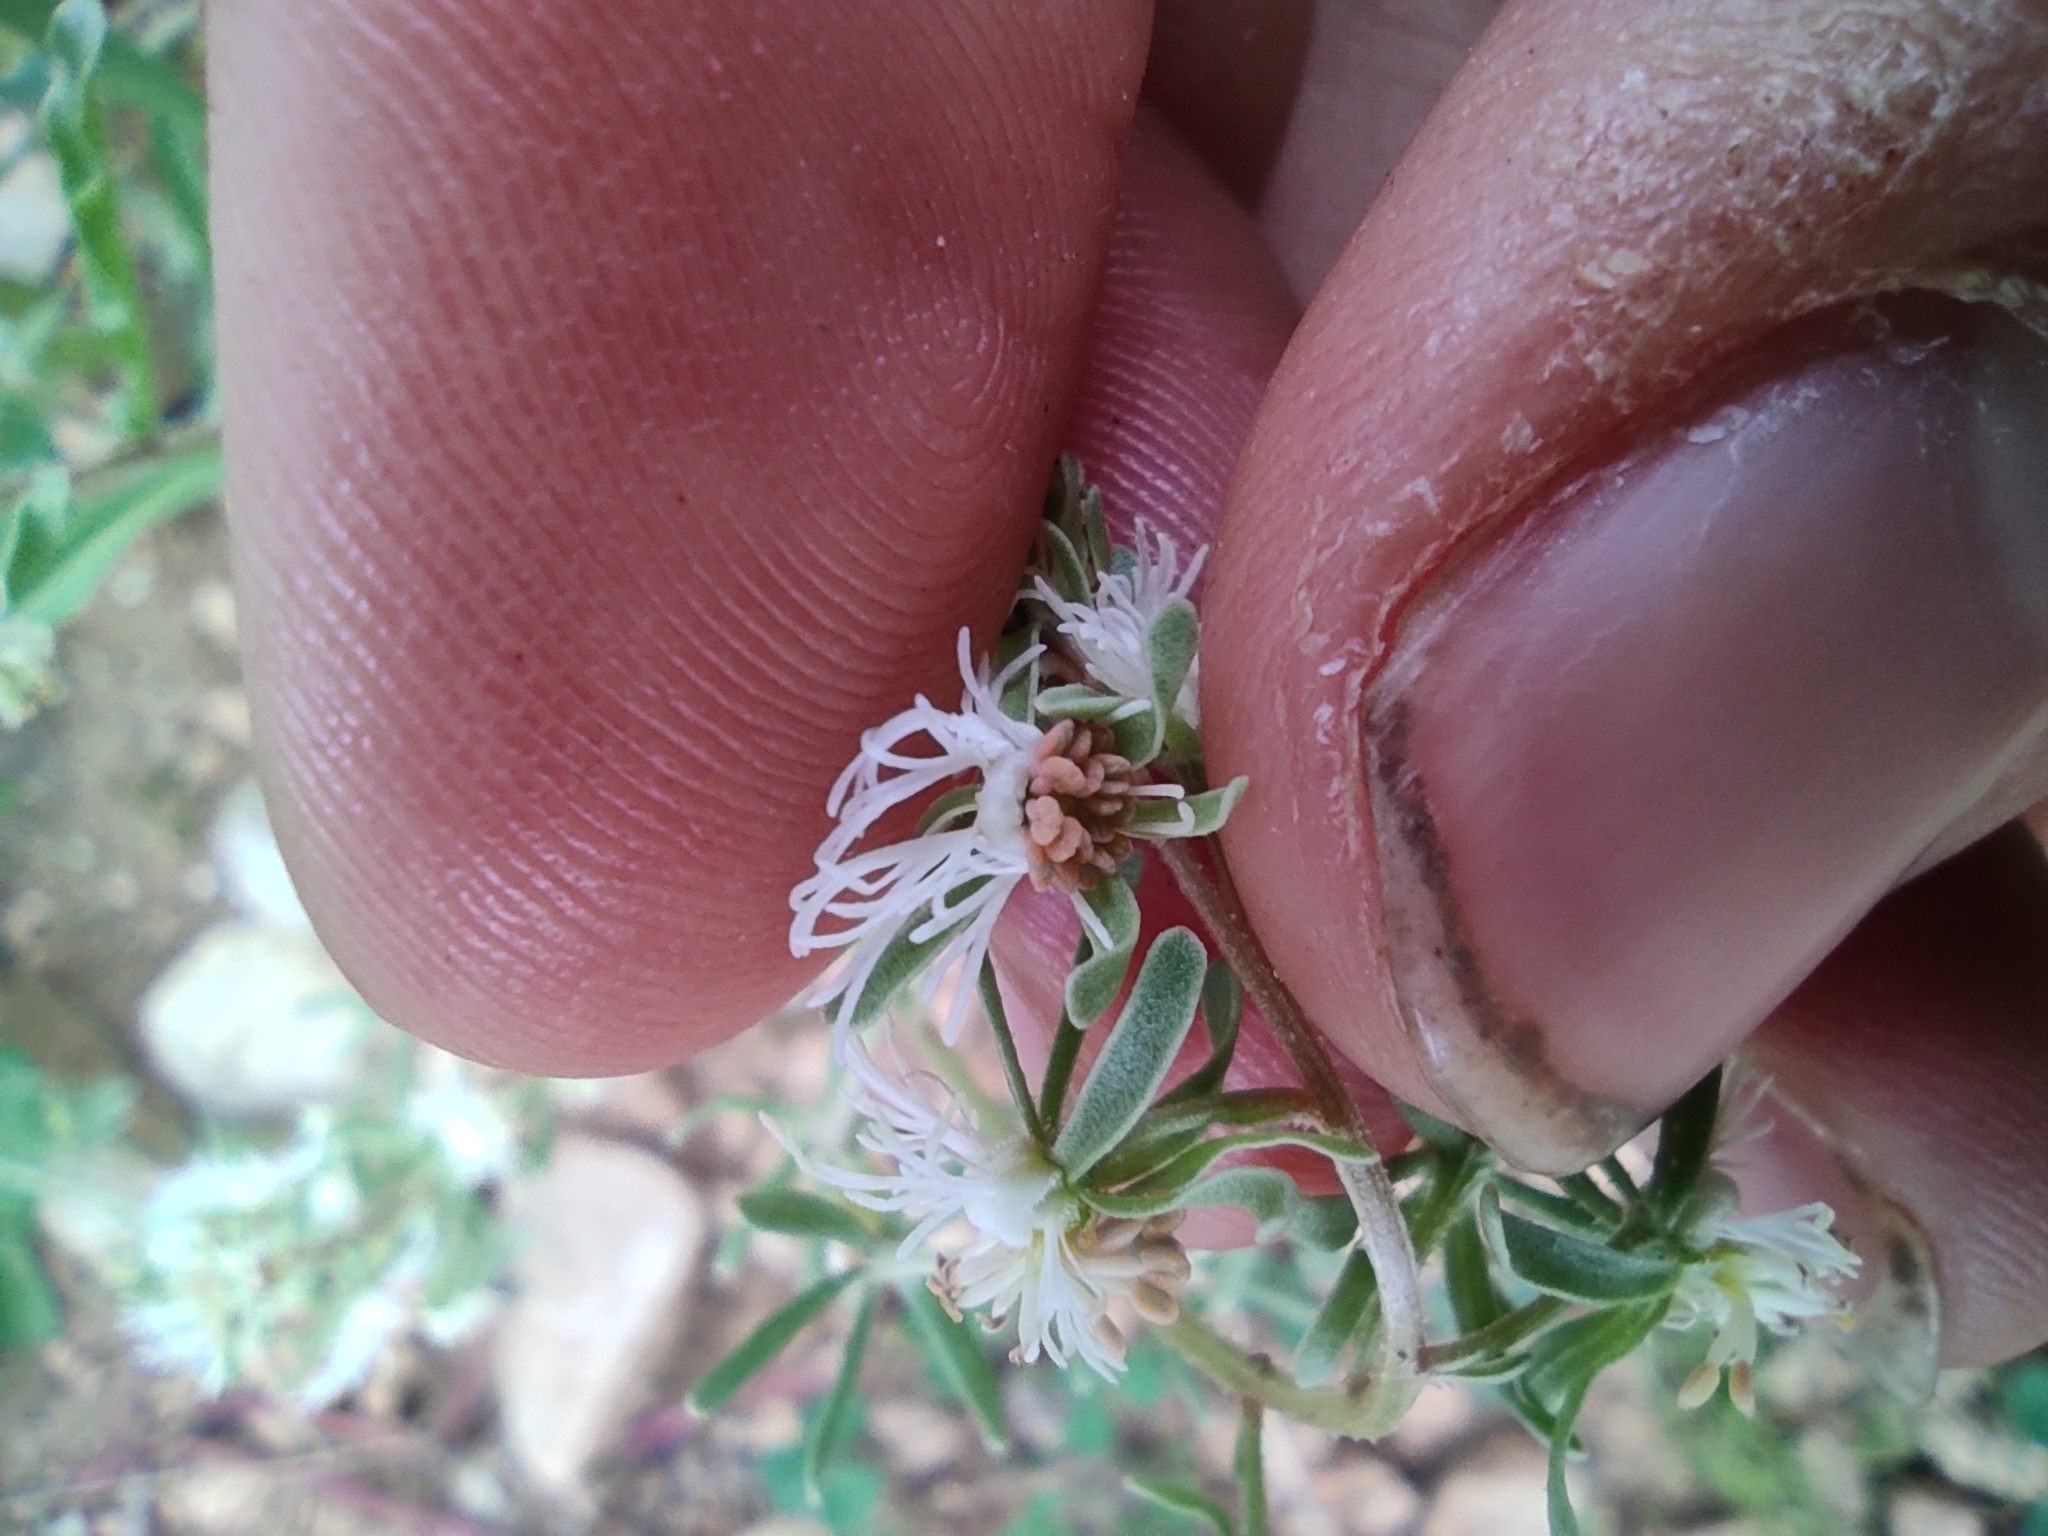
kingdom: Plantae
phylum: Tracheophyta
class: Magnoliopsida
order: Brassicales
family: Resedaceae
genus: Reseda
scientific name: Reseda phyteuma
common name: Corn mignonette
